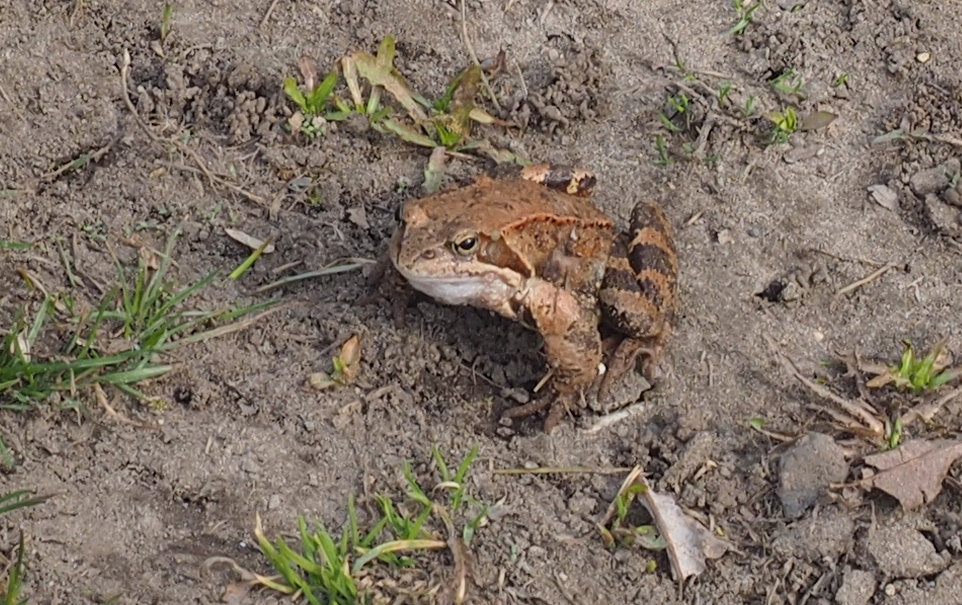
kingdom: Animalia
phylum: Chordata
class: Amphibia
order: Anura
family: Ranidae
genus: Rana
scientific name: Rana temporaria
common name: Common frog
